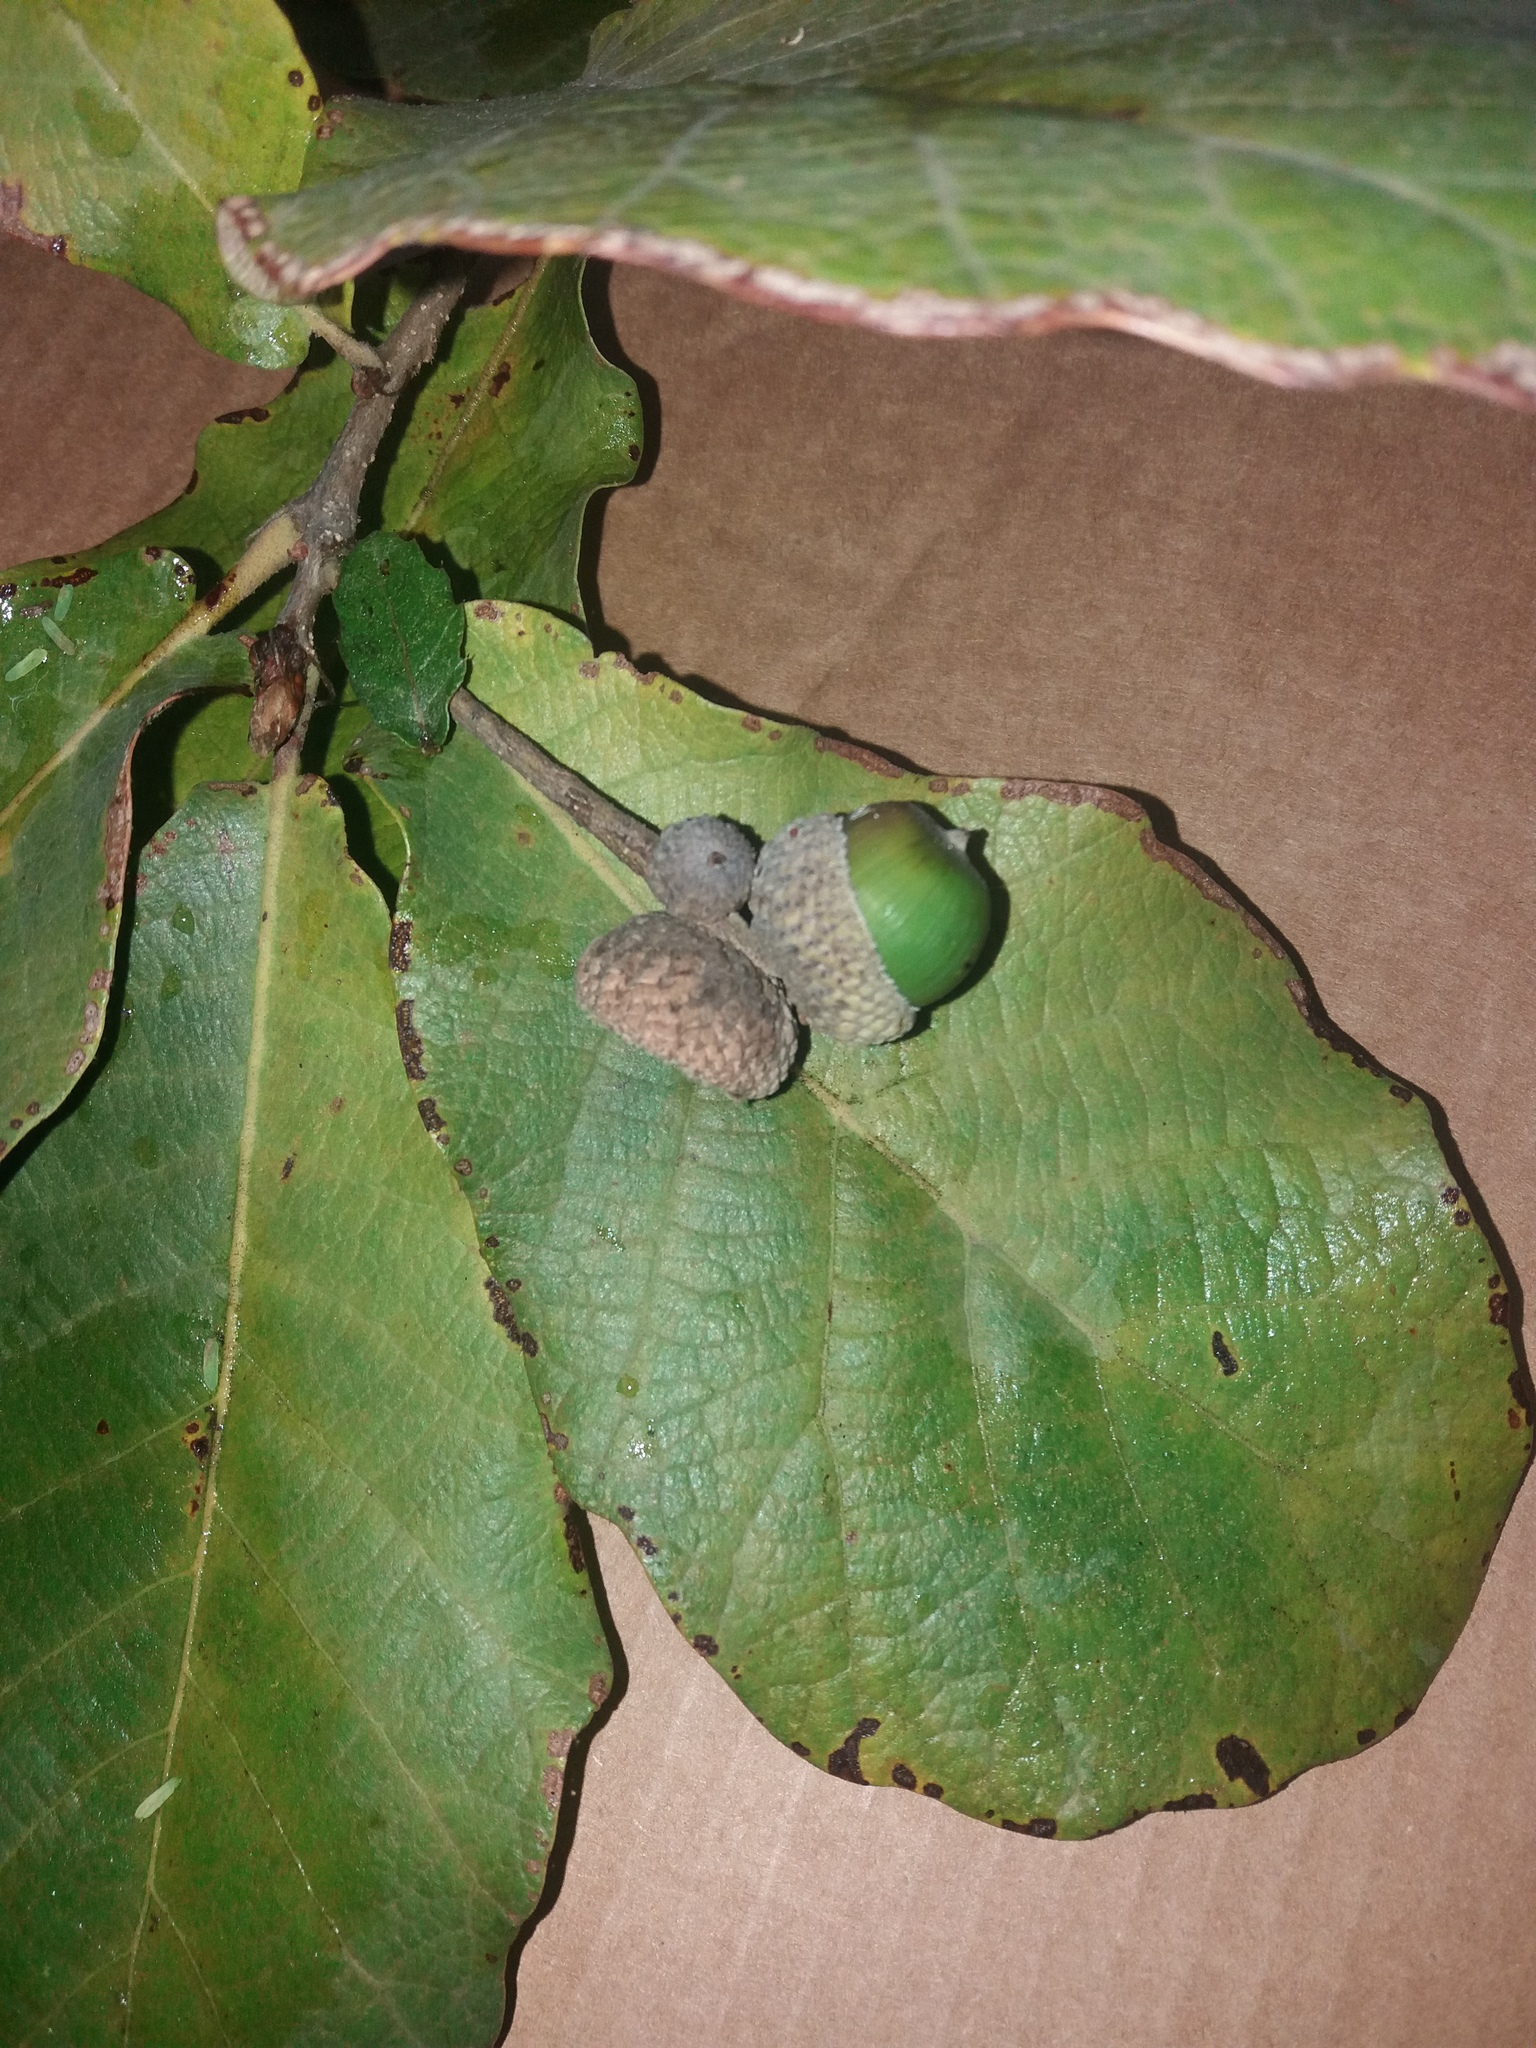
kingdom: Plantae
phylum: Tracheophyta
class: Magnoliopsida
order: Fagales
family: Fagaceae
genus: Quercus
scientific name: Quercus obtusata
